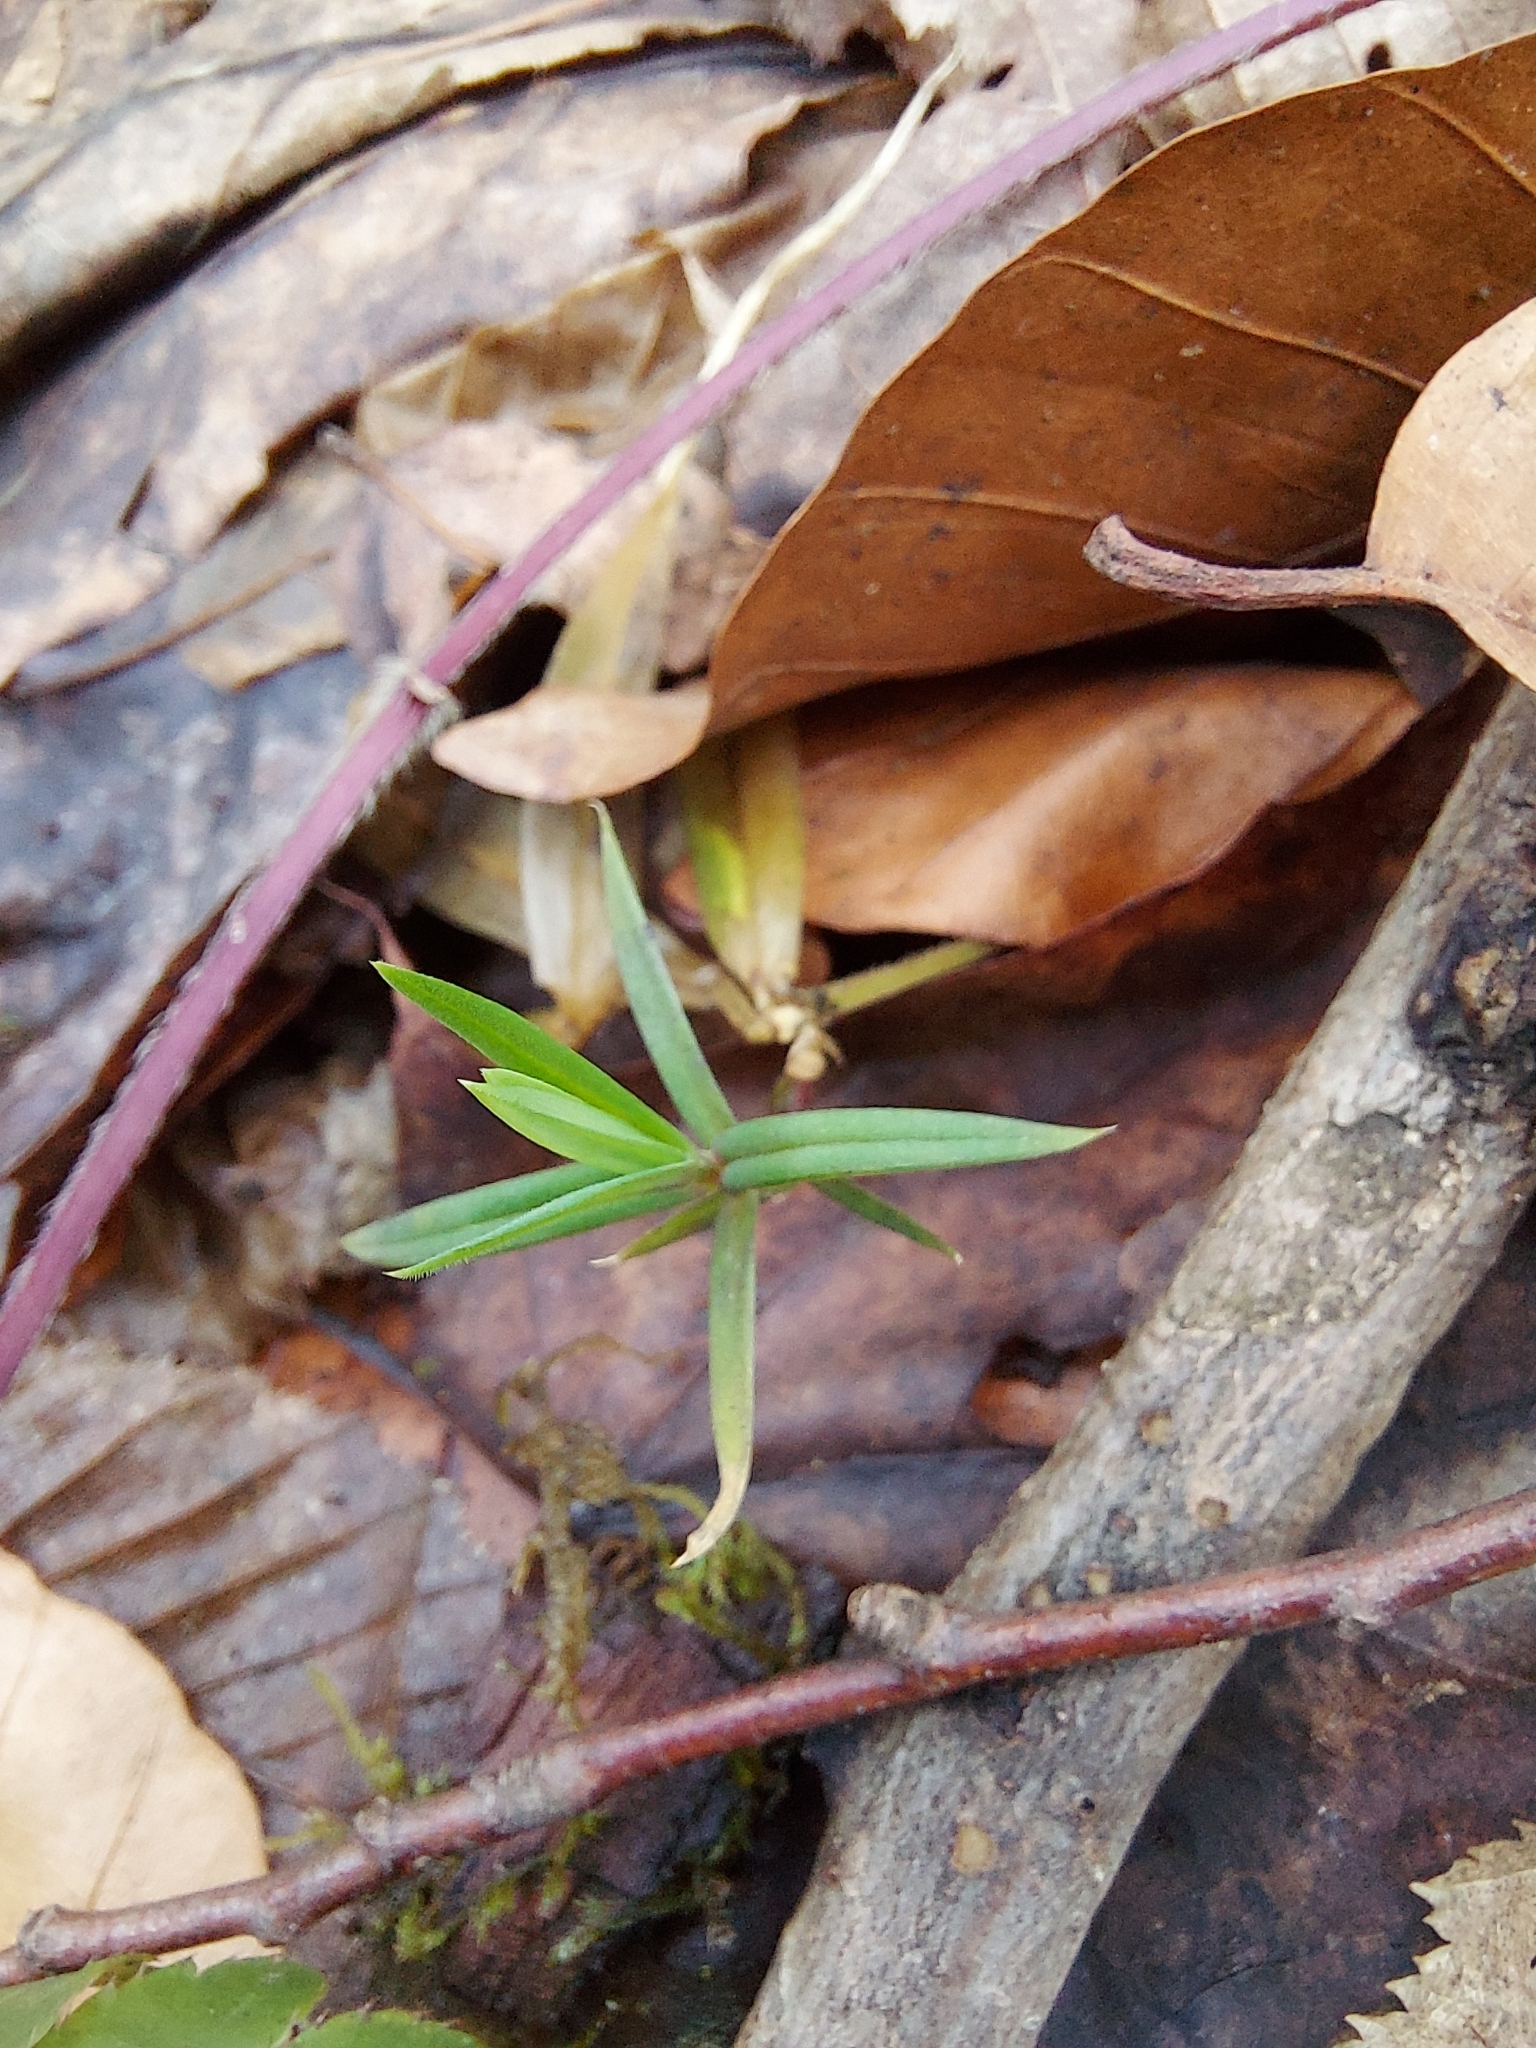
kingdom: Plantae
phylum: Tracheophyta
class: Magnoliopsida
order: Caryophyllales
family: Caryophyllaceae
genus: Rabelera
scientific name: Rabelera holostea
